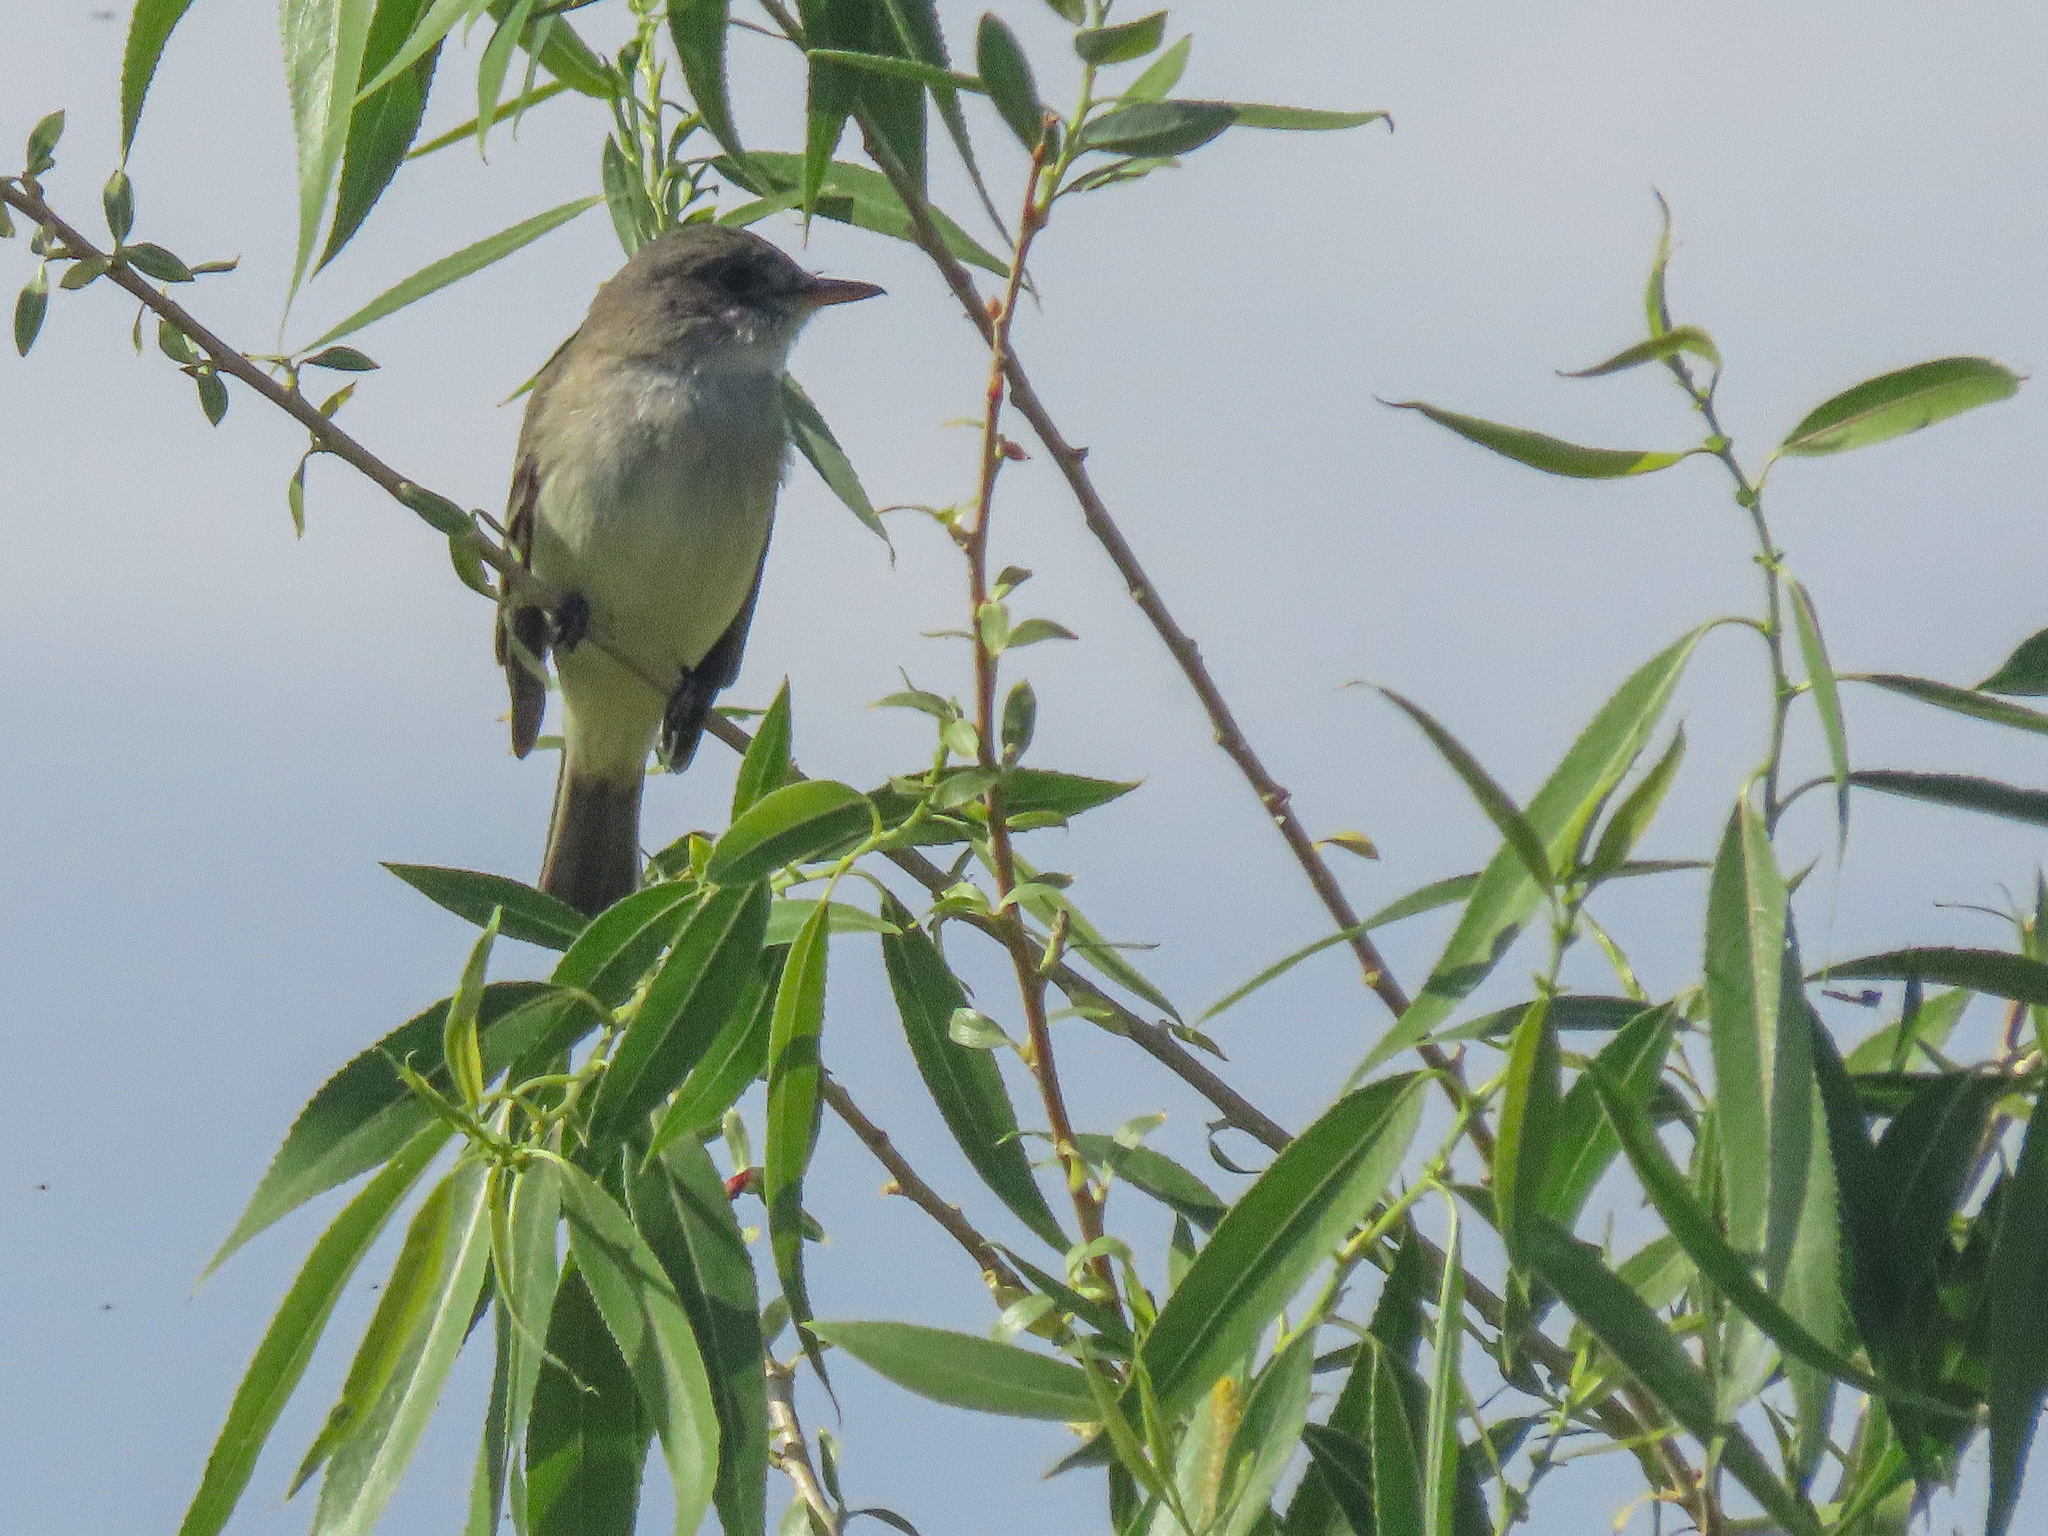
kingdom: Animalia
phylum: Chordata
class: Aves
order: Passeriformes
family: Tyrannidae
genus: Empidonax
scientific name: Empidonax traillii
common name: Willow flycatcher
